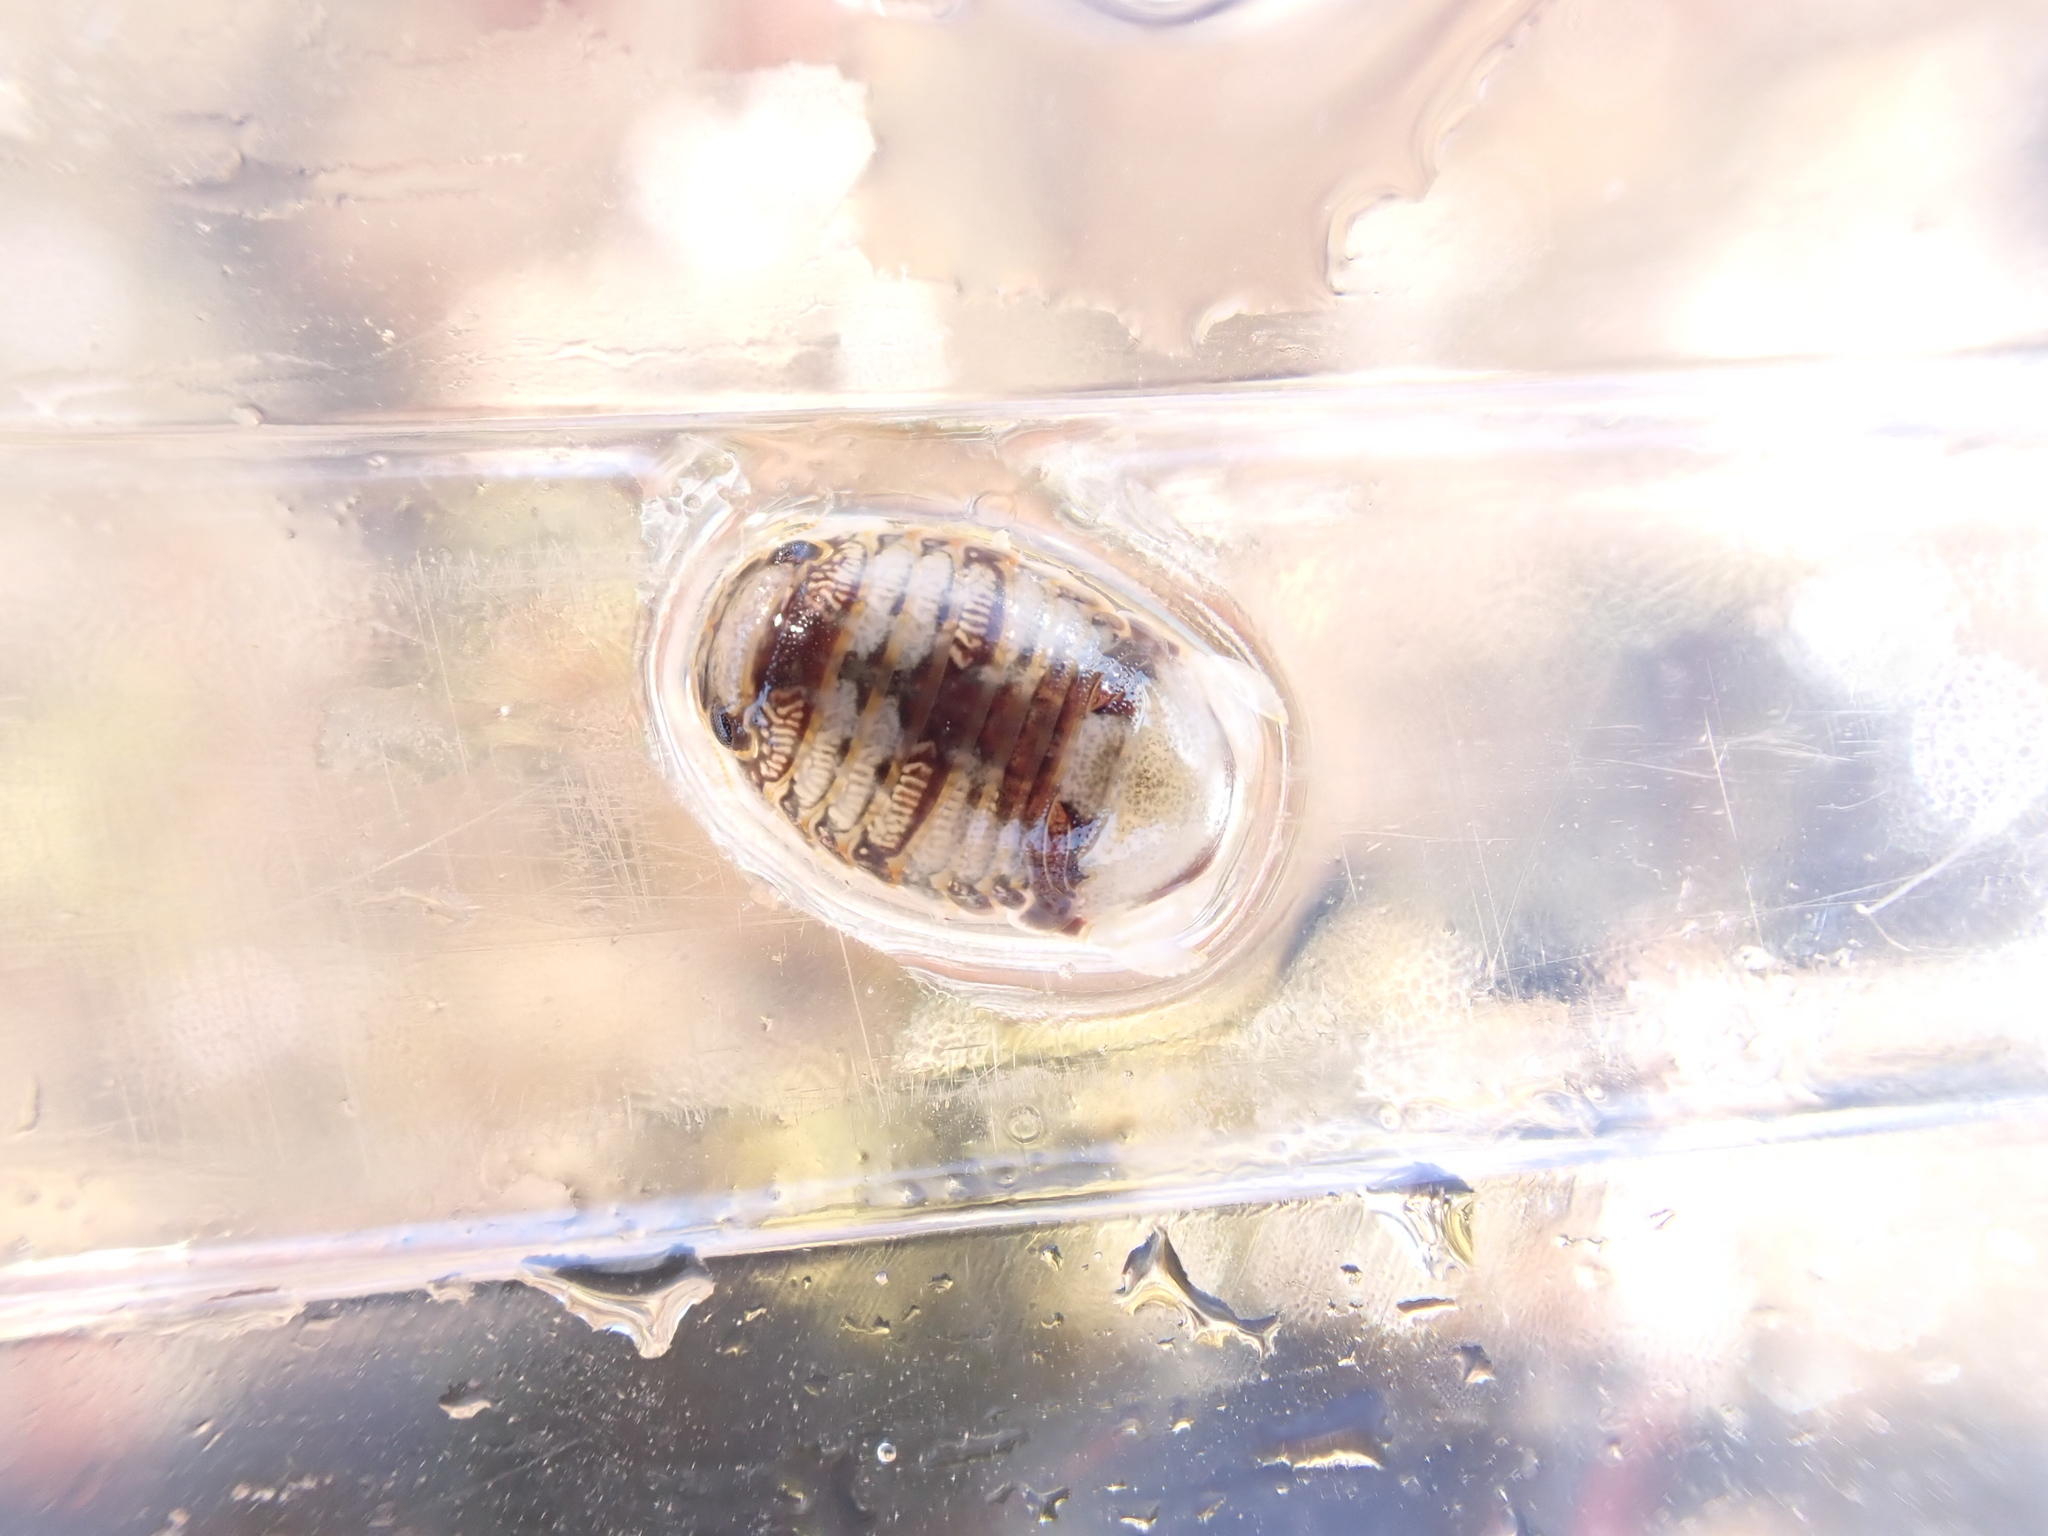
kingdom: Animalia
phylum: Arthropoda
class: Malacostraca
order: Isopoda
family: Sphaeromatidae
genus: Sphaeroma
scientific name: Sphaeroma serratum
